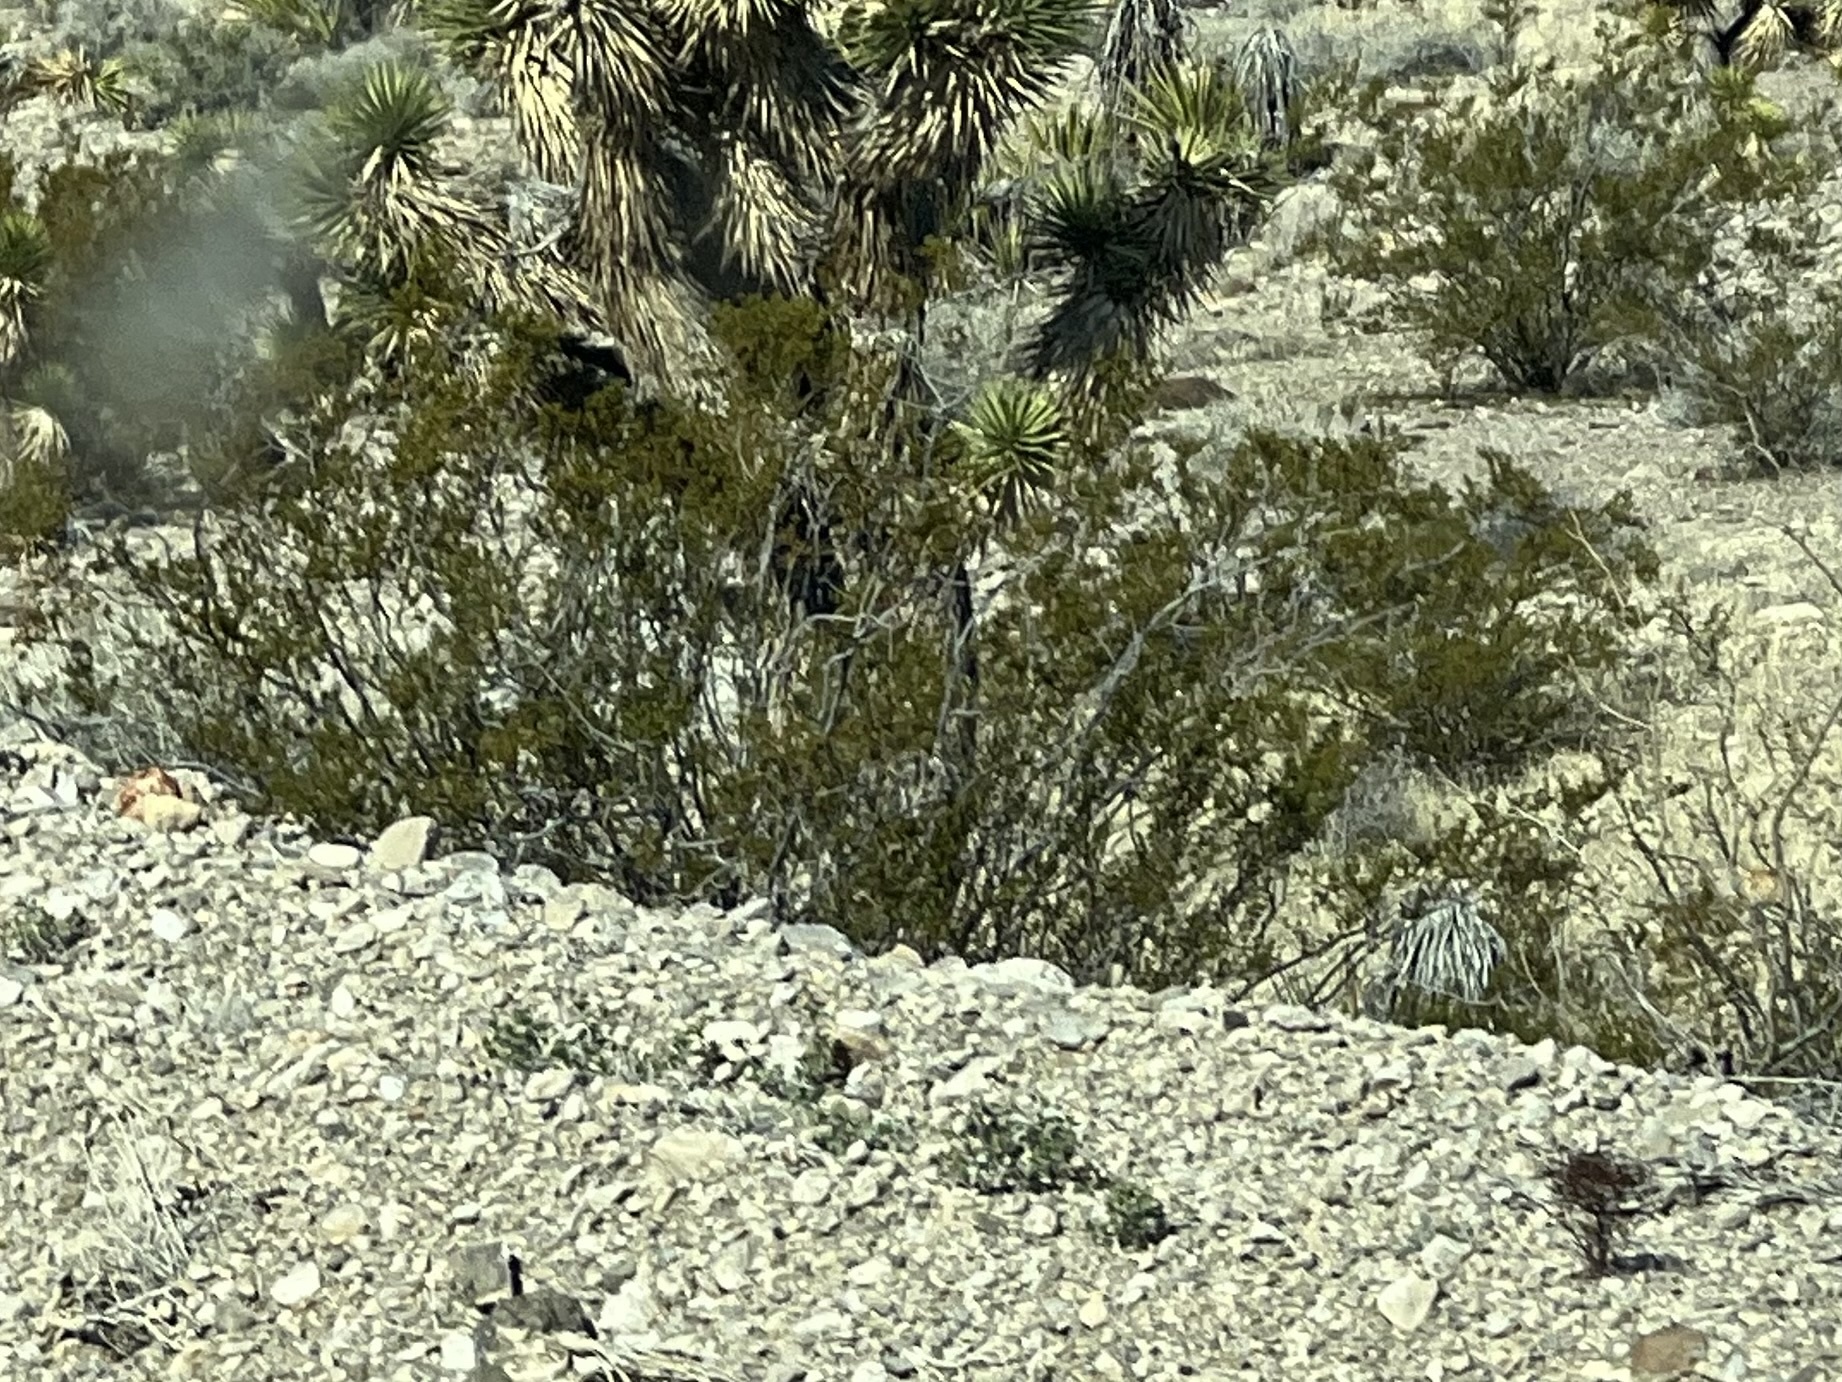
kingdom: Plantae
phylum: Tracheophyta
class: Magnoliopsida
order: Zygophyllales
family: Zygophyllaceae
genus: Larrea
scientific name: Larrea tridentata
